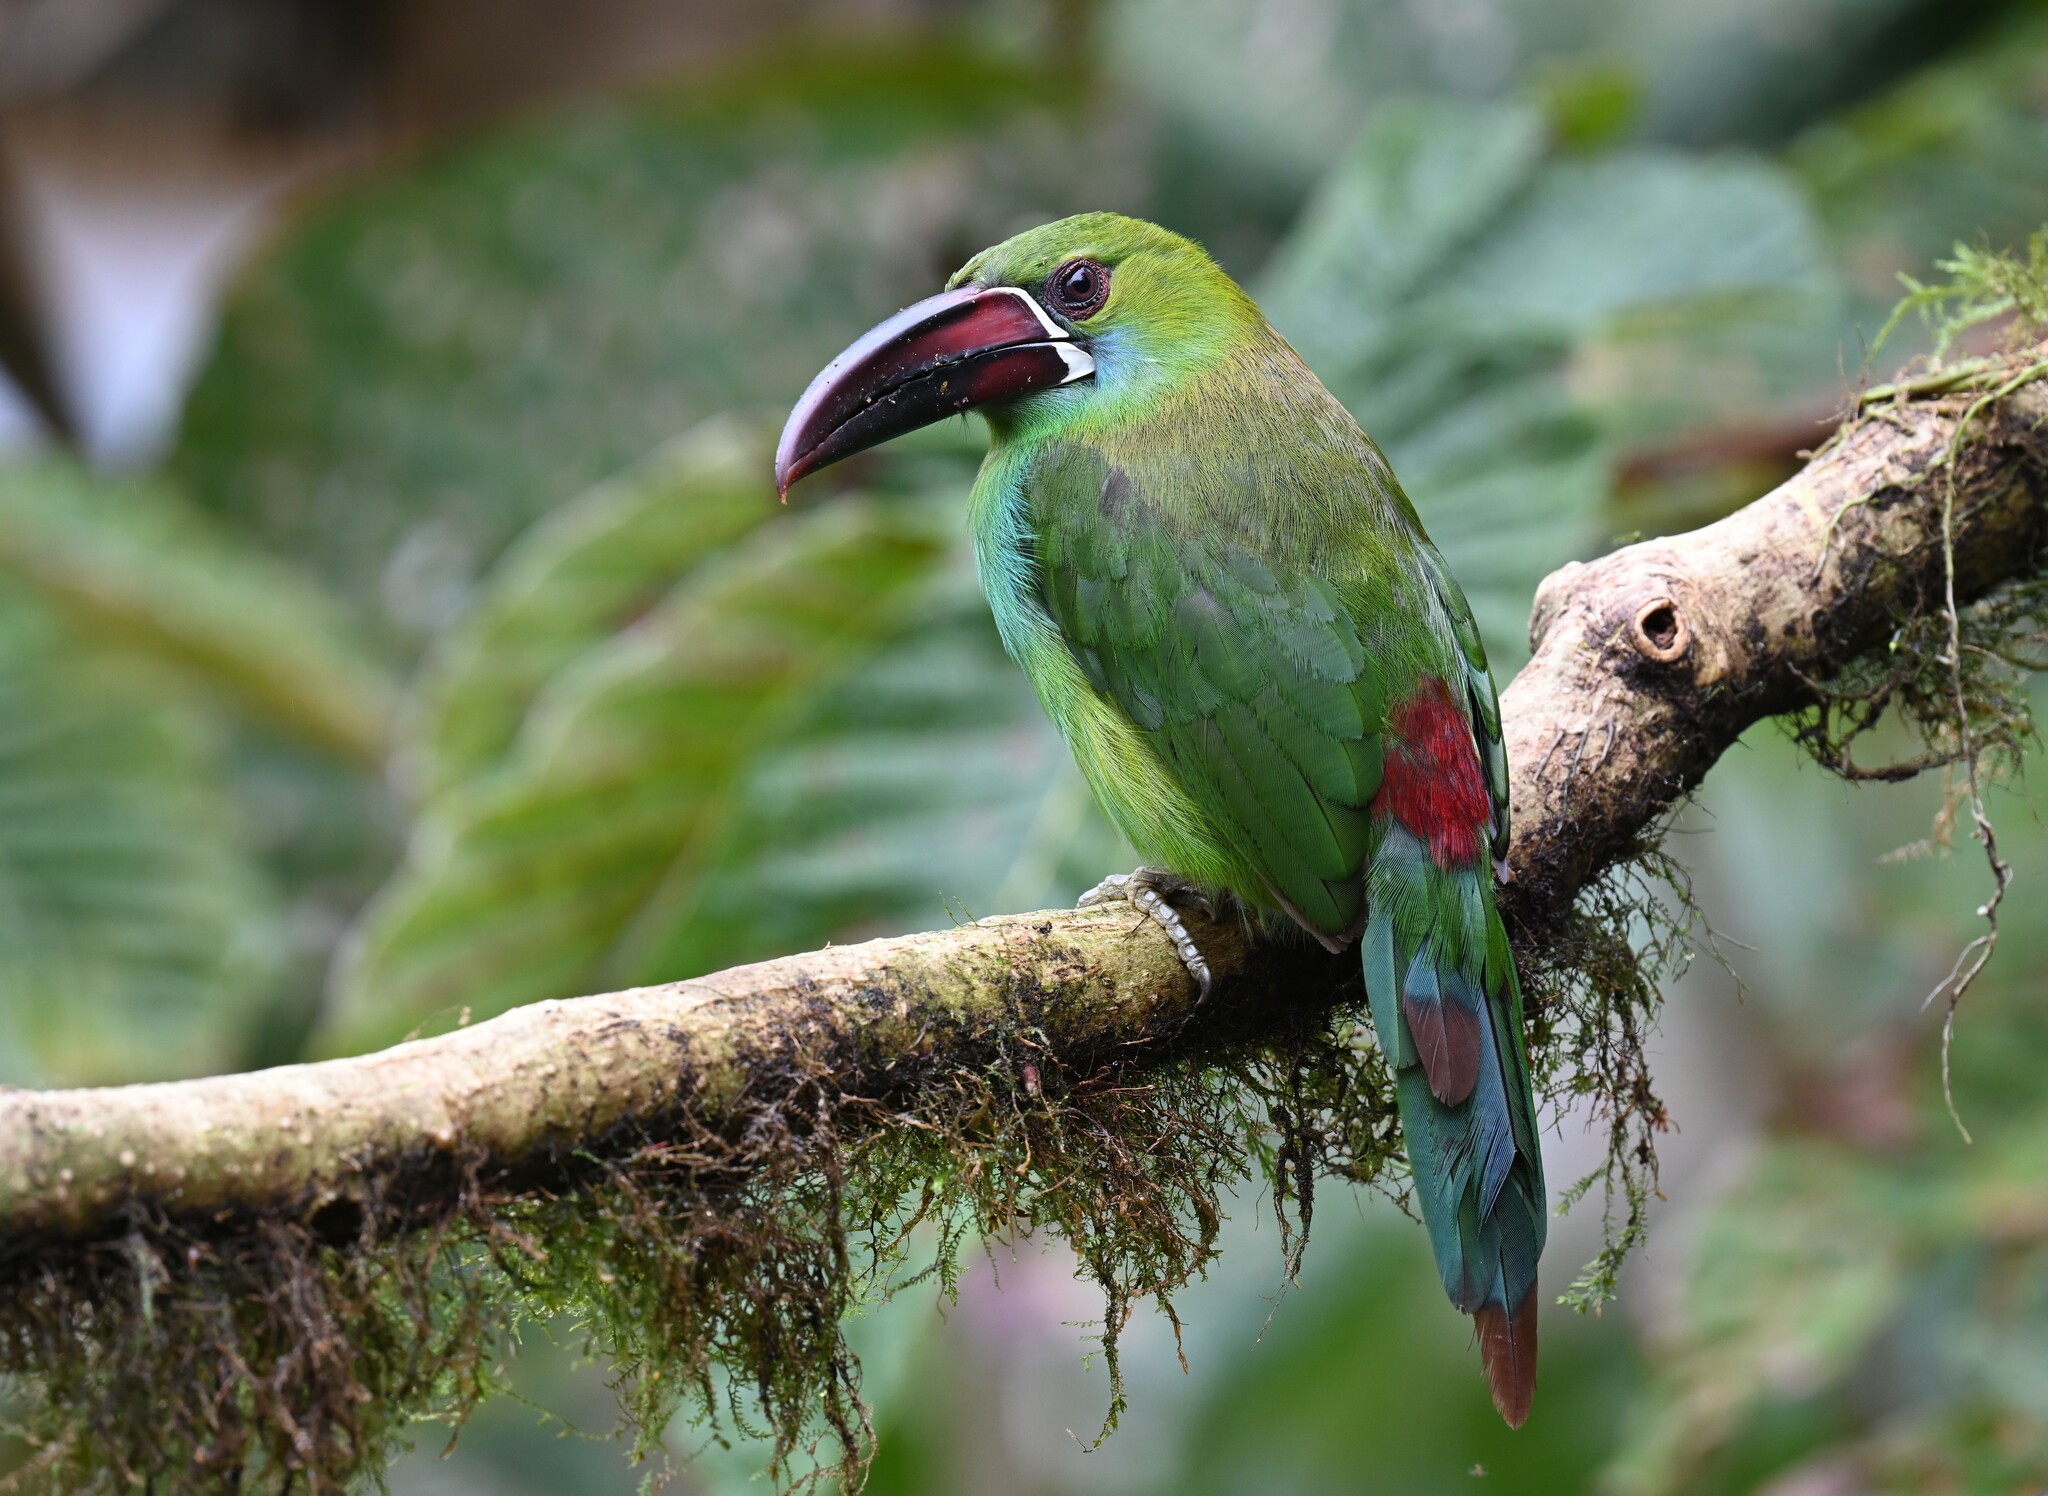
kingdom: Animalia
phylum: Chordata
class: Aves
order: Piciformes
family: Ramphastidae
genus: Aulacorhynchus
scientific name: Aulacorhynchus haematopygus
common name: Crimson-rumped toucanet
